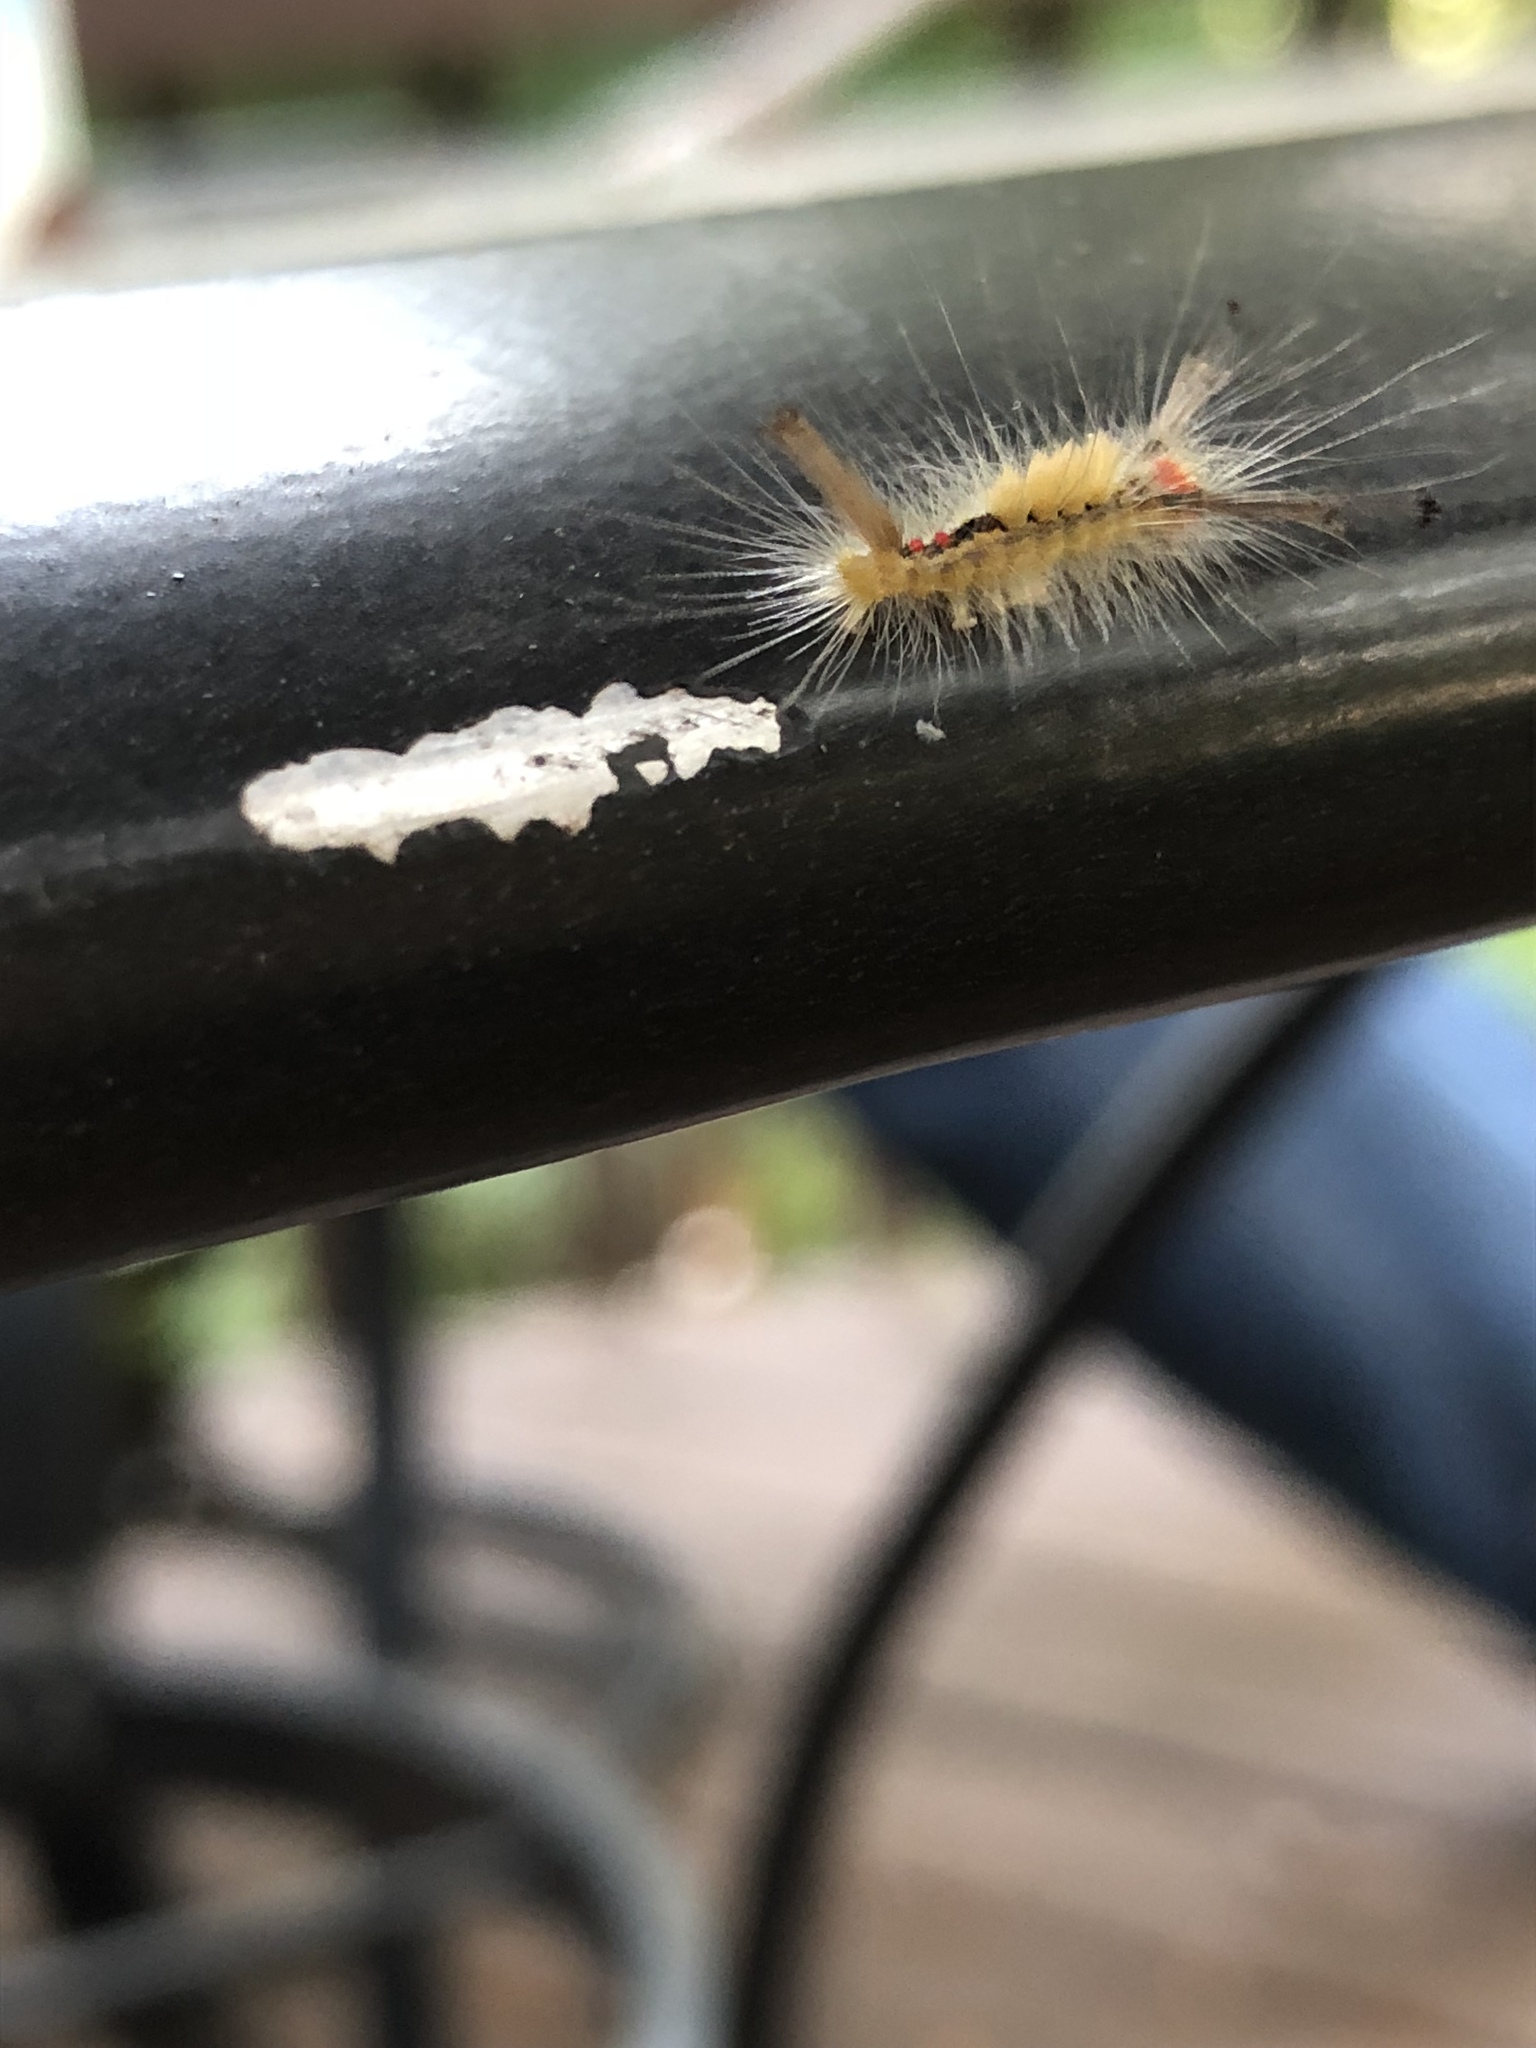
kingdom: Animalia
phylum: Arthropoda
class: Insecta
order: Lepidoptera
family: Erebidae
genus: Orgyia
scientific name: Orgyia leucostigma
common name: White-marked tussock moth
